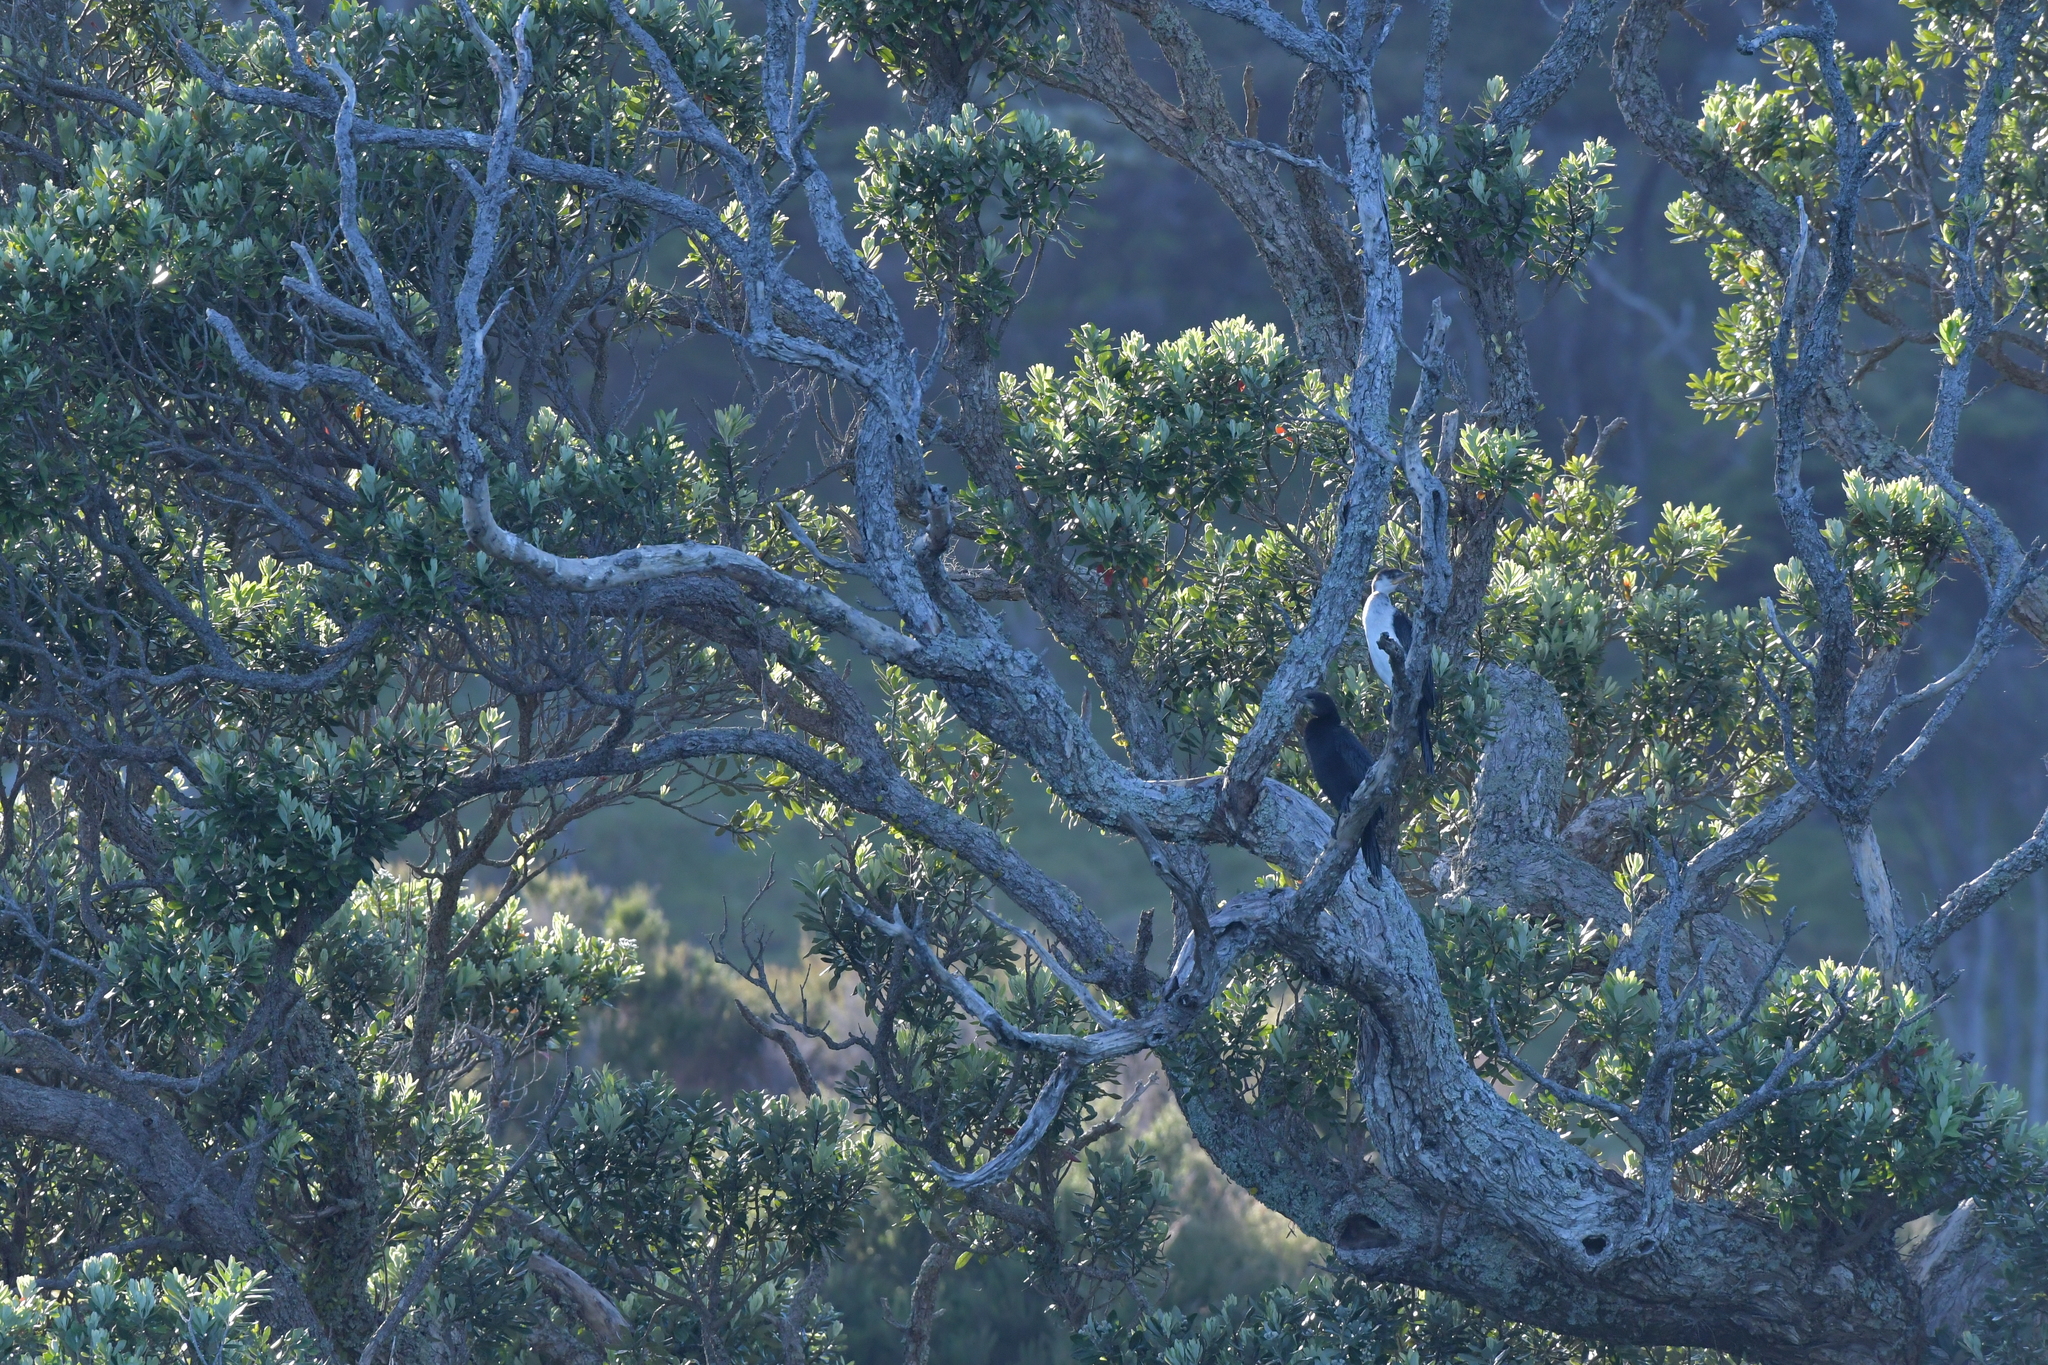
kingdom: Animalia
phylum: Chordata
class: Aves
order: Suliformes
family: Phalacrocoracidae
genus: Microcarbo
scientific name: Microcarbo melanoleucos
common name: Little pied cormorant
